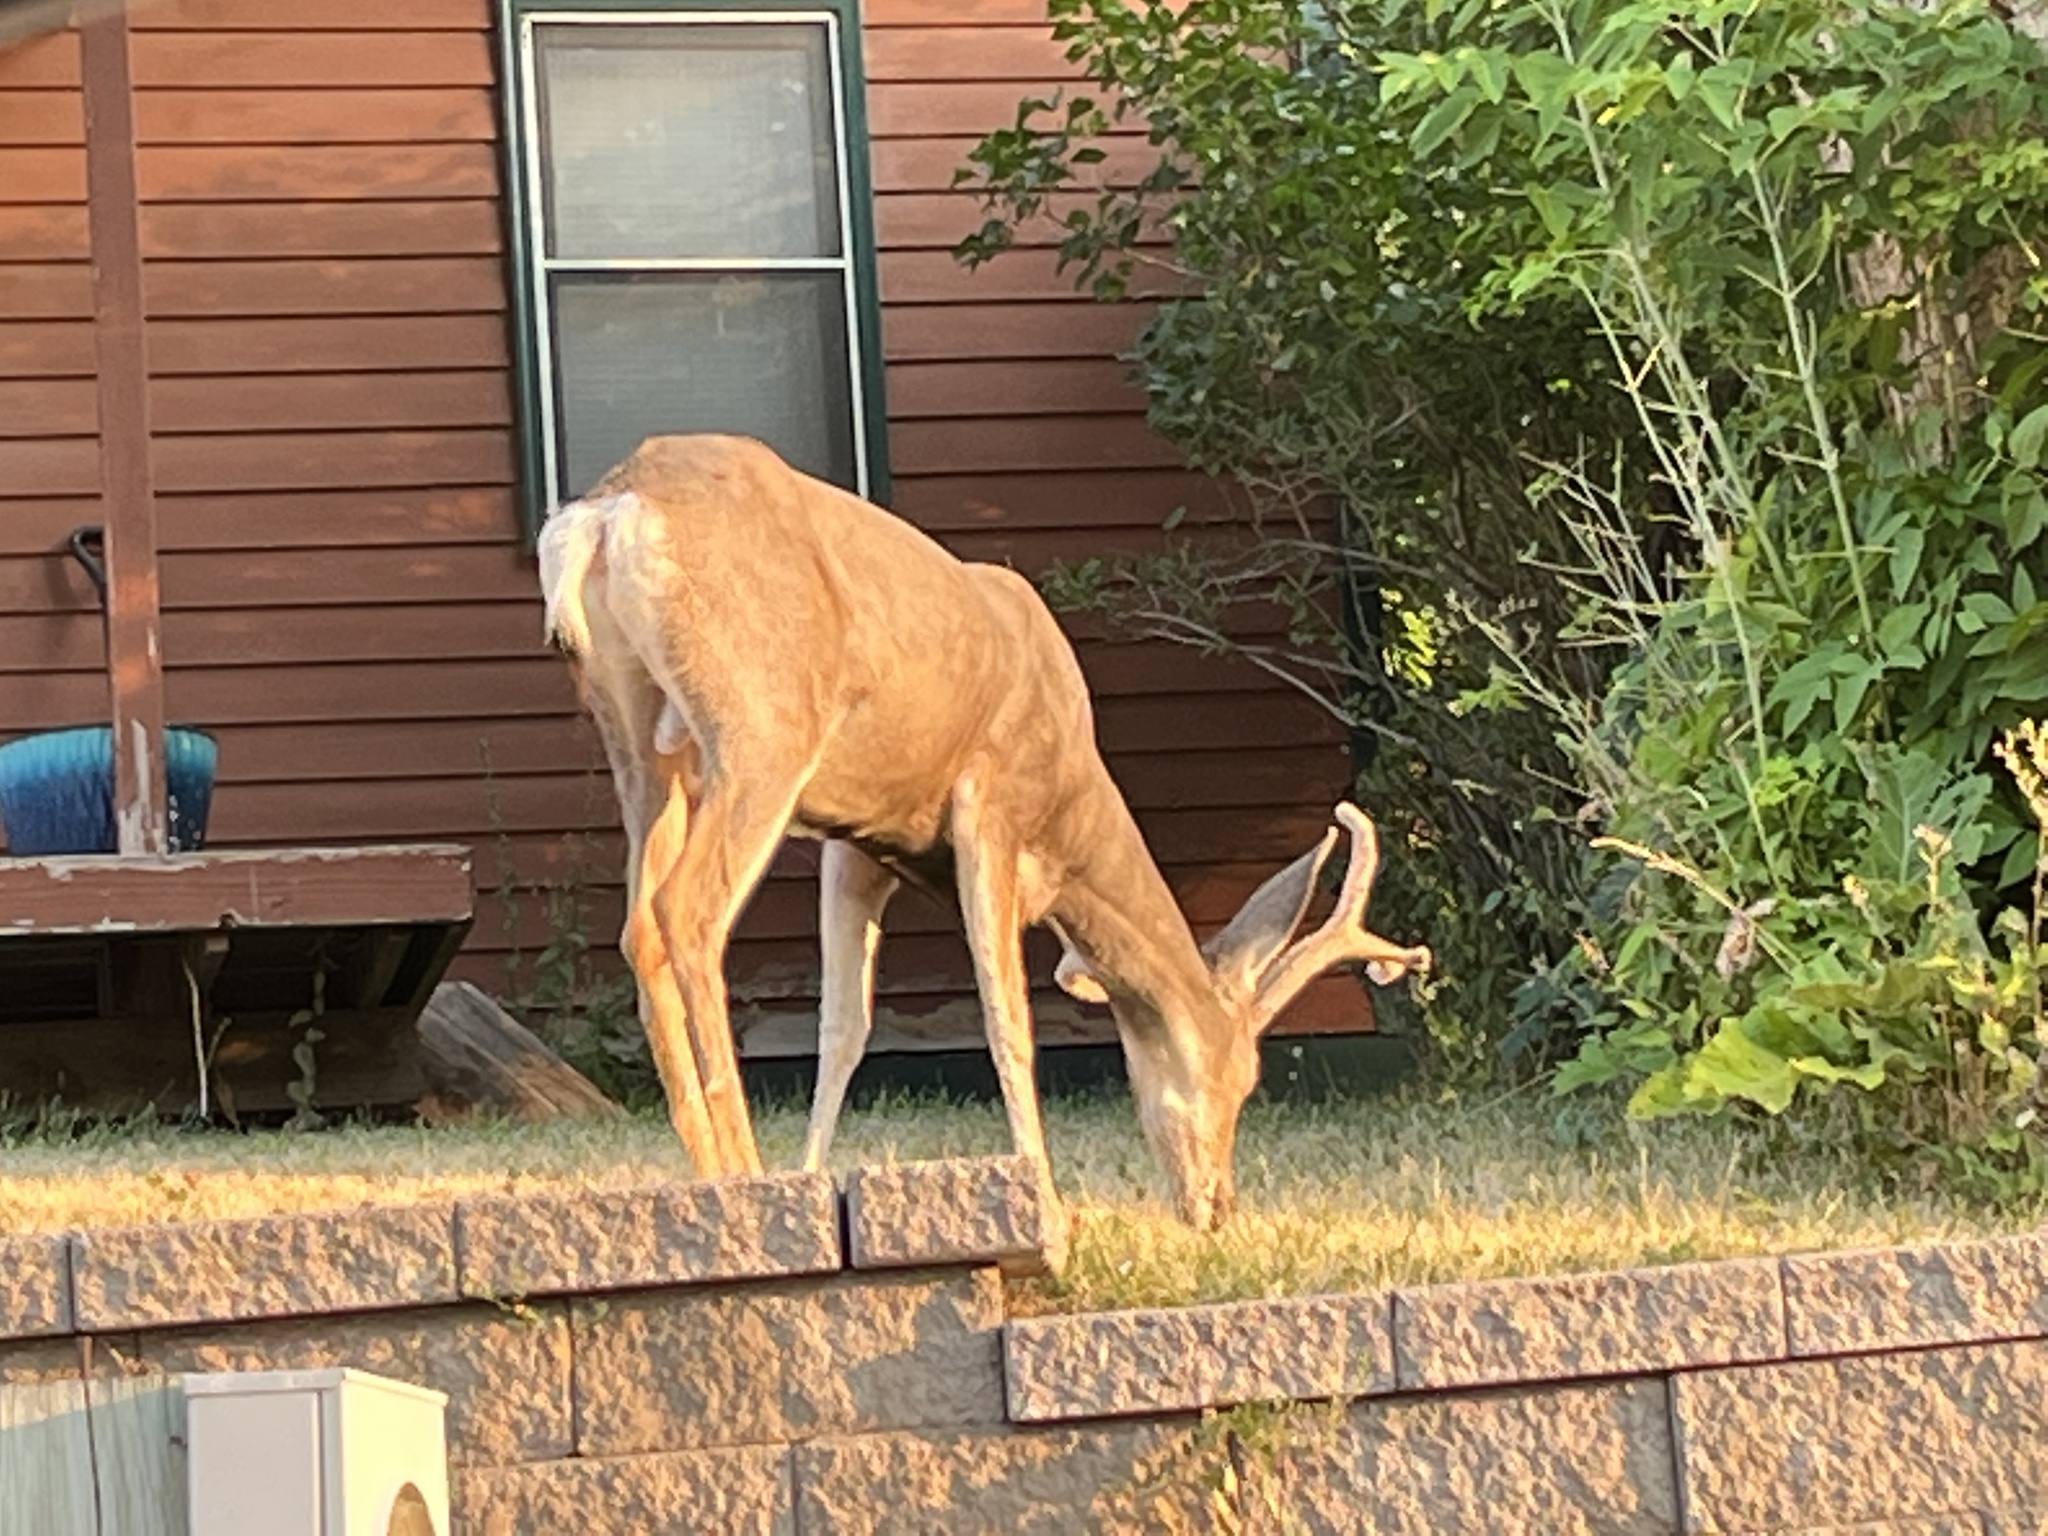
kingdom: Animalia
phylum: Chordata
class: Mammalia
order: Artiodactyla
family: Cervidae
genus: Odocoileus
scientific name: Odocoileus hemionus
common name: Mule deer
